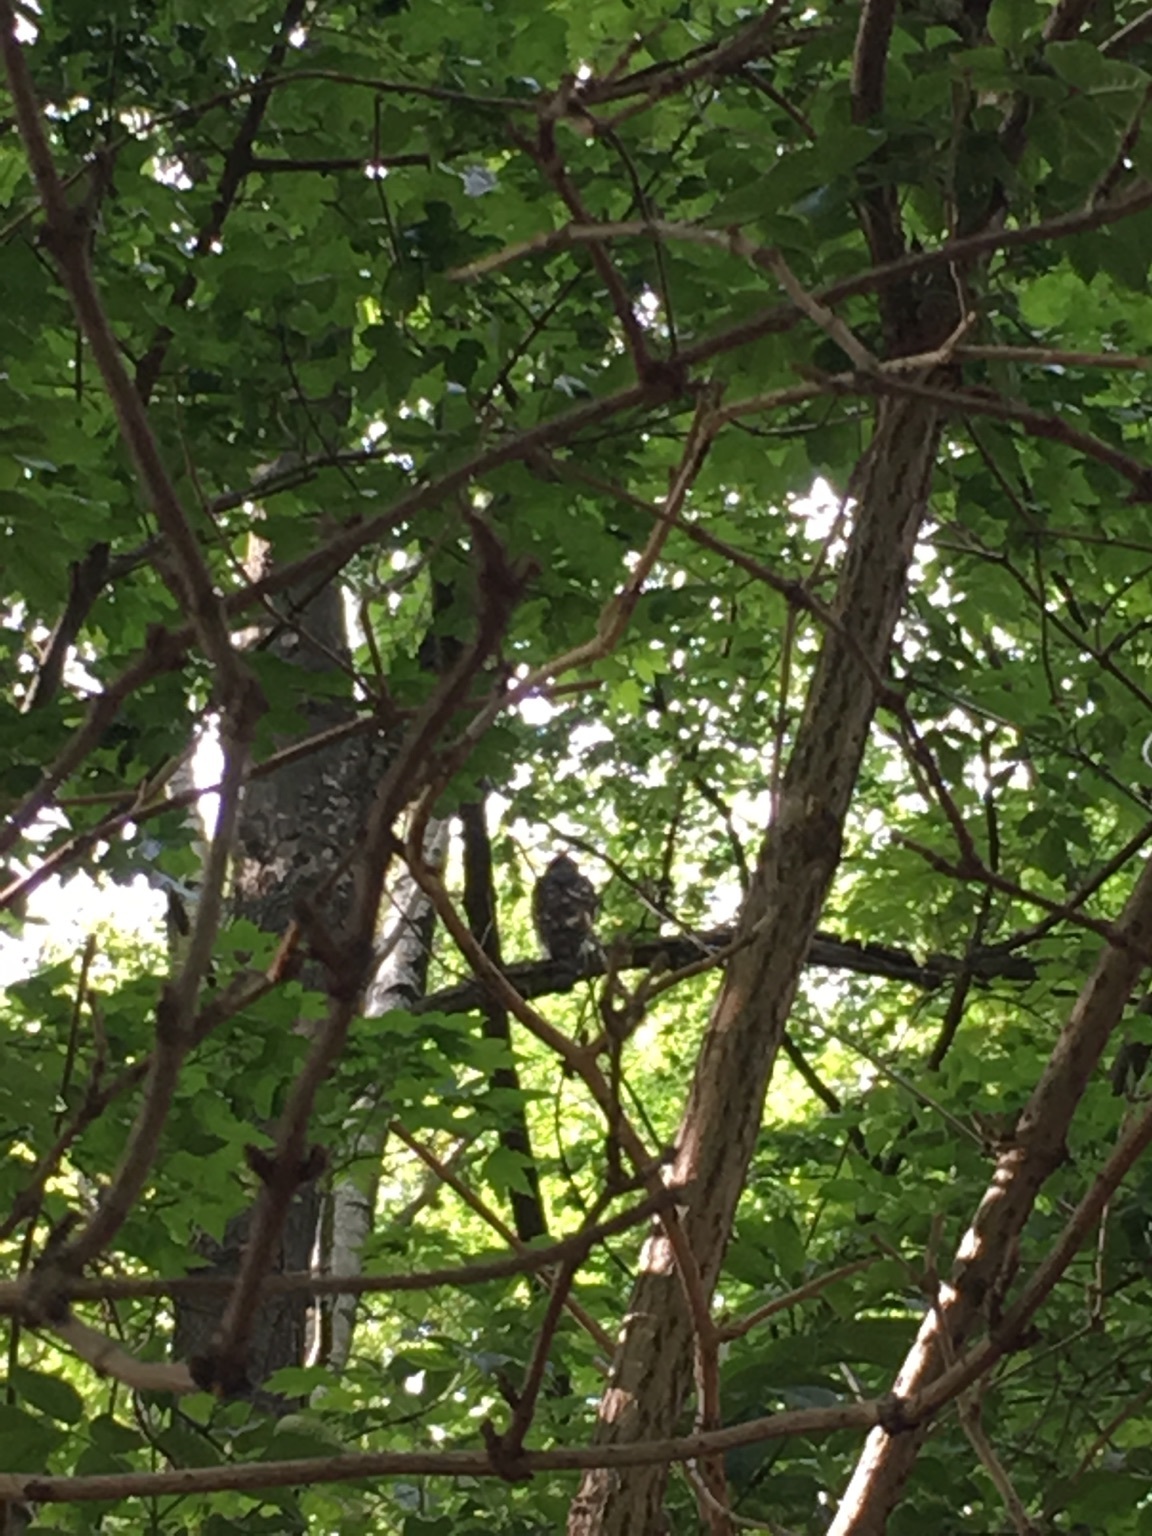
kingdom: Animalia
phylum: Chordata
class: Aves
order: Accipitriformes
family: Accipitridae
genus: Accipiter
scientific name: Accipiter nisus
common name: Eurasian sparrowhawk
